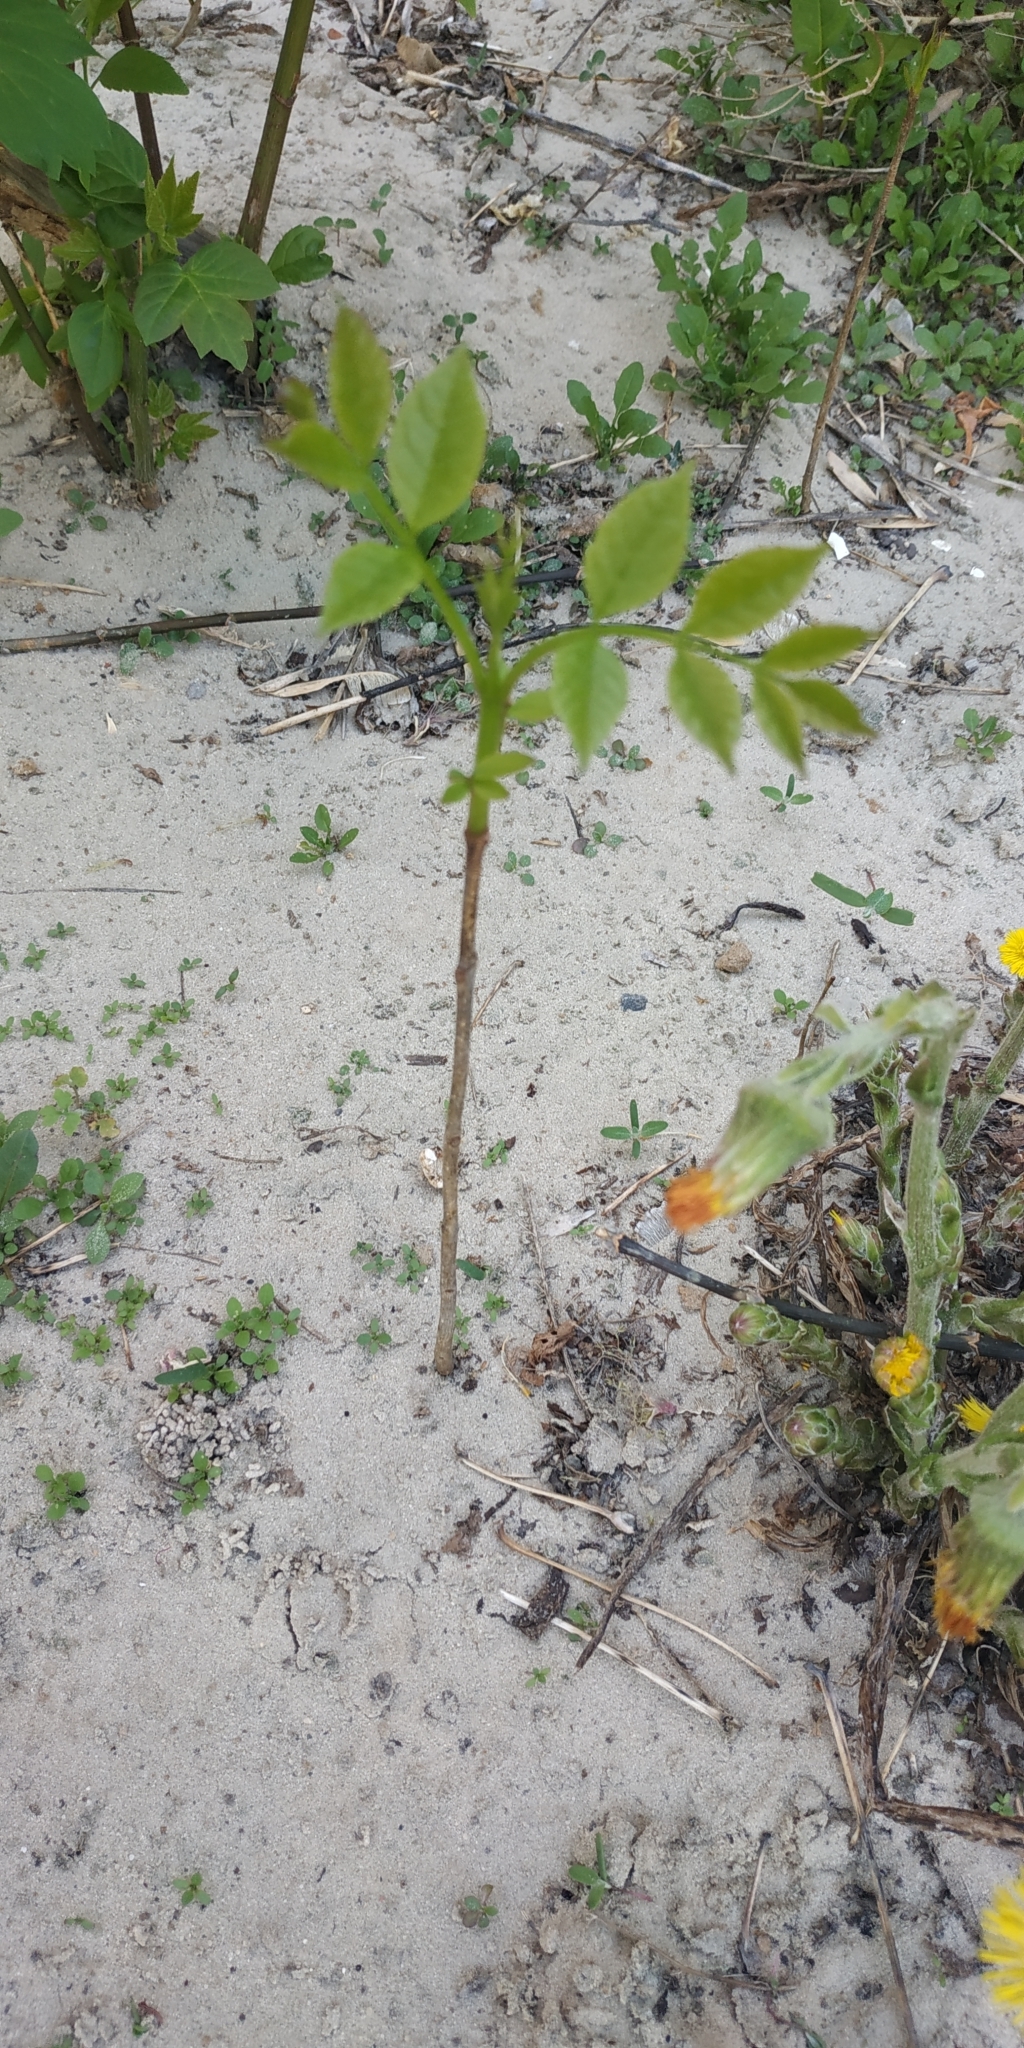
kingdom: Plantae
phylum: Tracheophyta
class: Magnoliopsida
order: Lamiales
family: Oleaceae
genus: Fraxinus
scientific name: Fraxinus pennsylvanica
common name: Green ash
